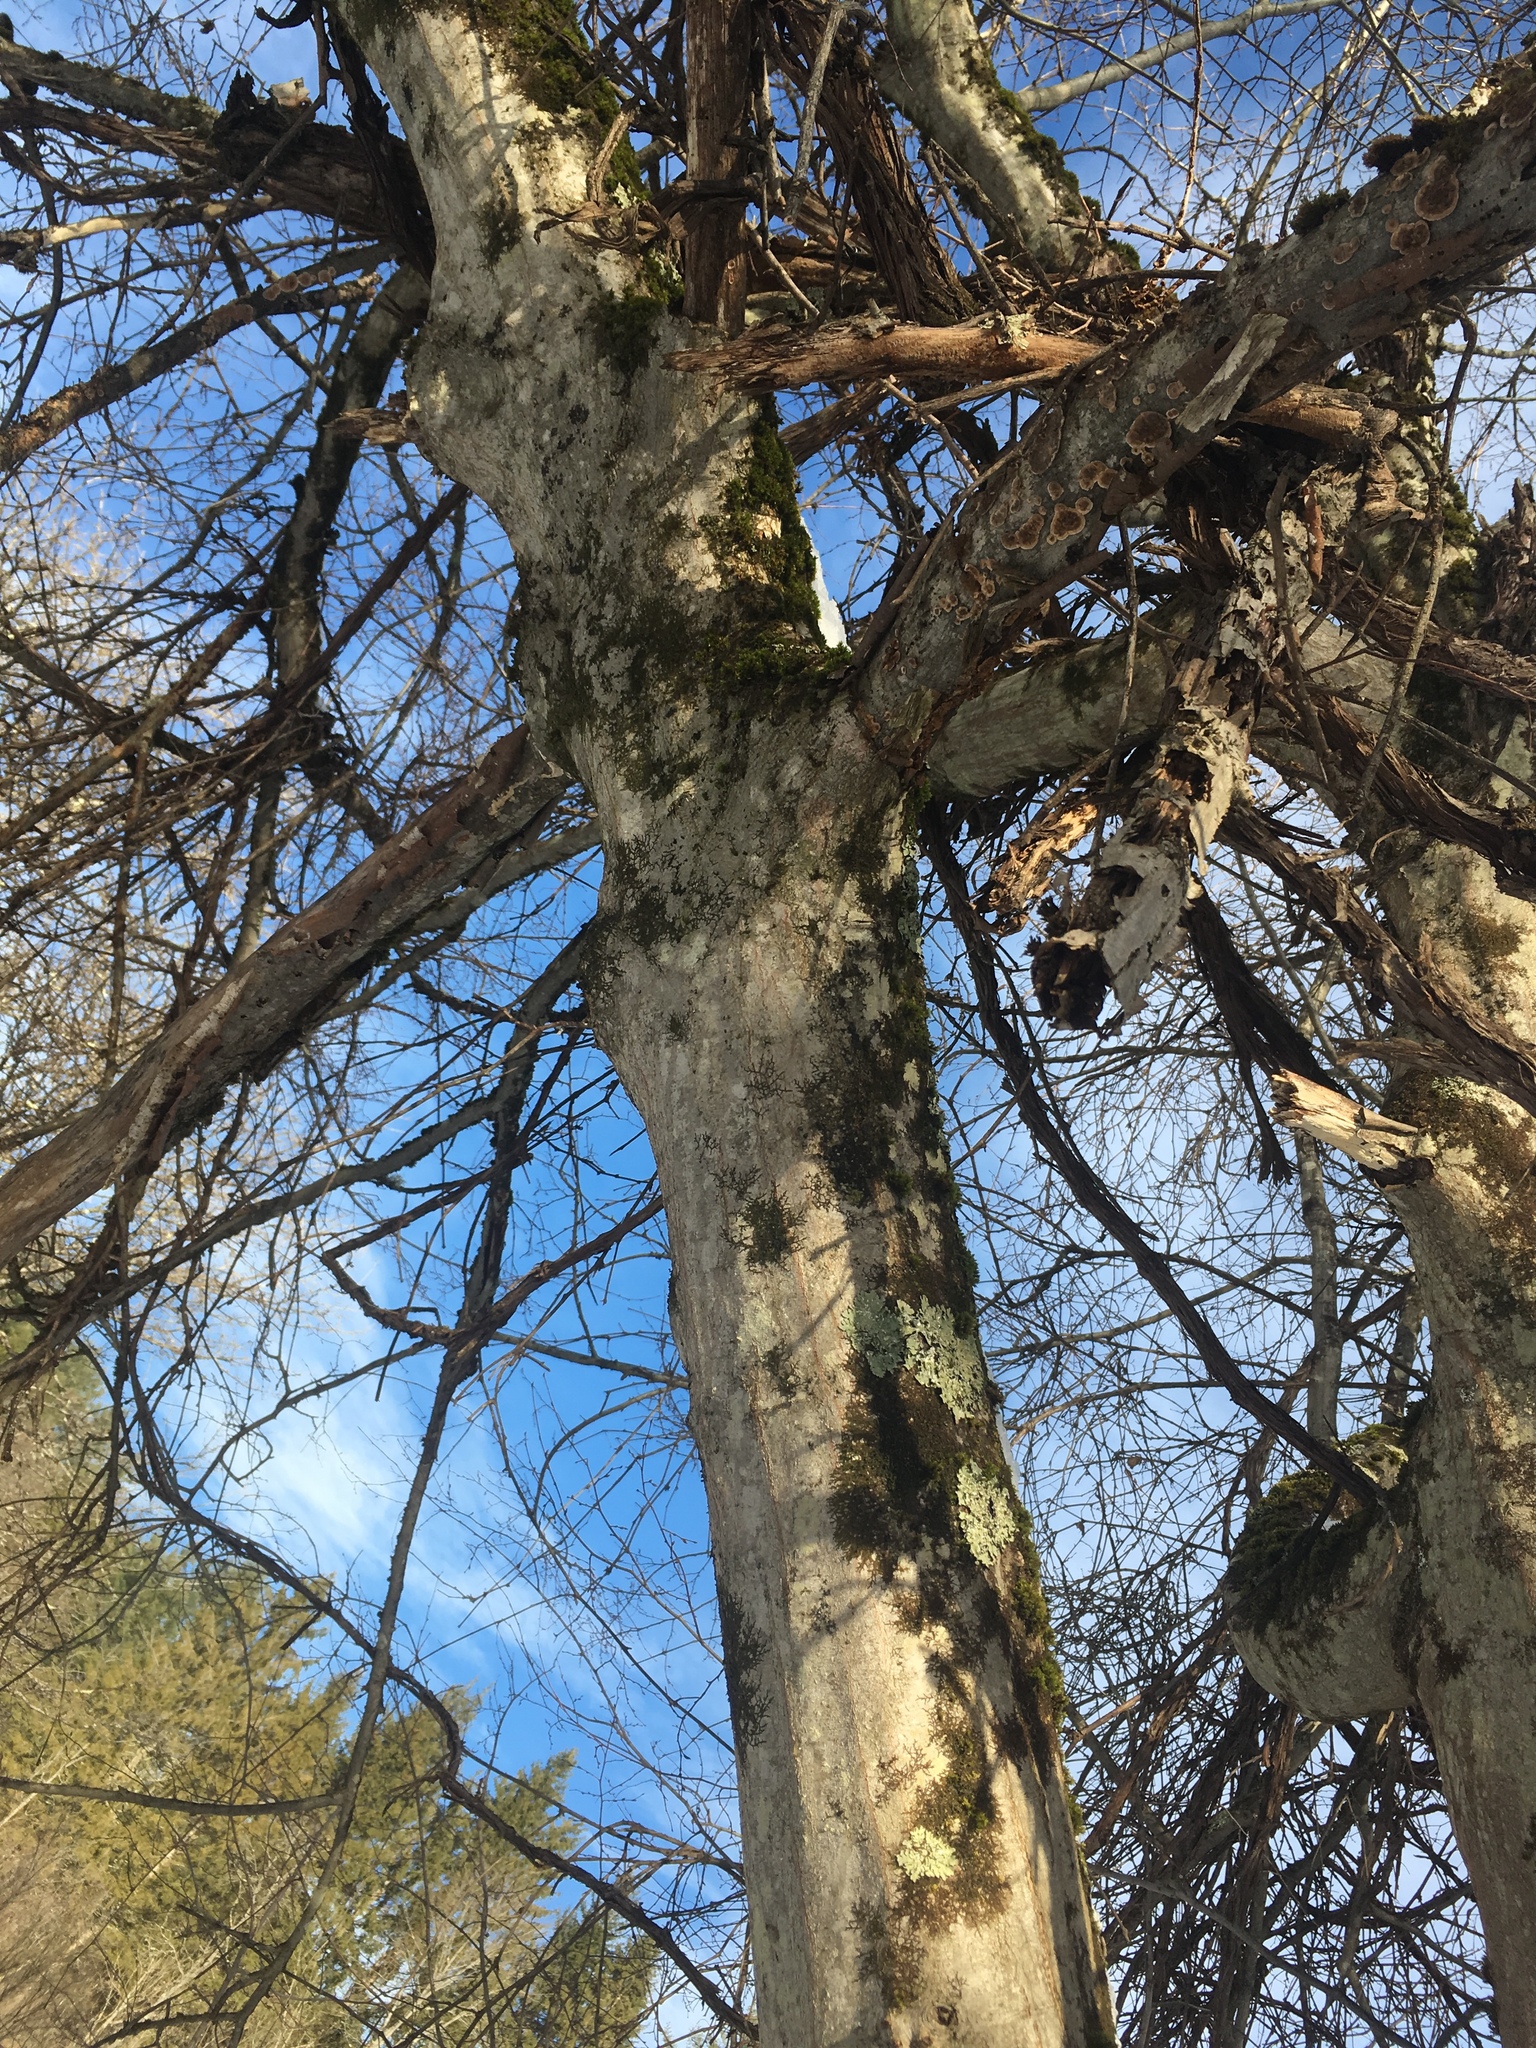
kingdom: Plantae
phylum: Tracheophyta
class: Magnoliopsida
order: Fagales
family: Betulaceae
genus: Carpinus
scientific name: Carpinus caroliniana
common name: American hornbeam
